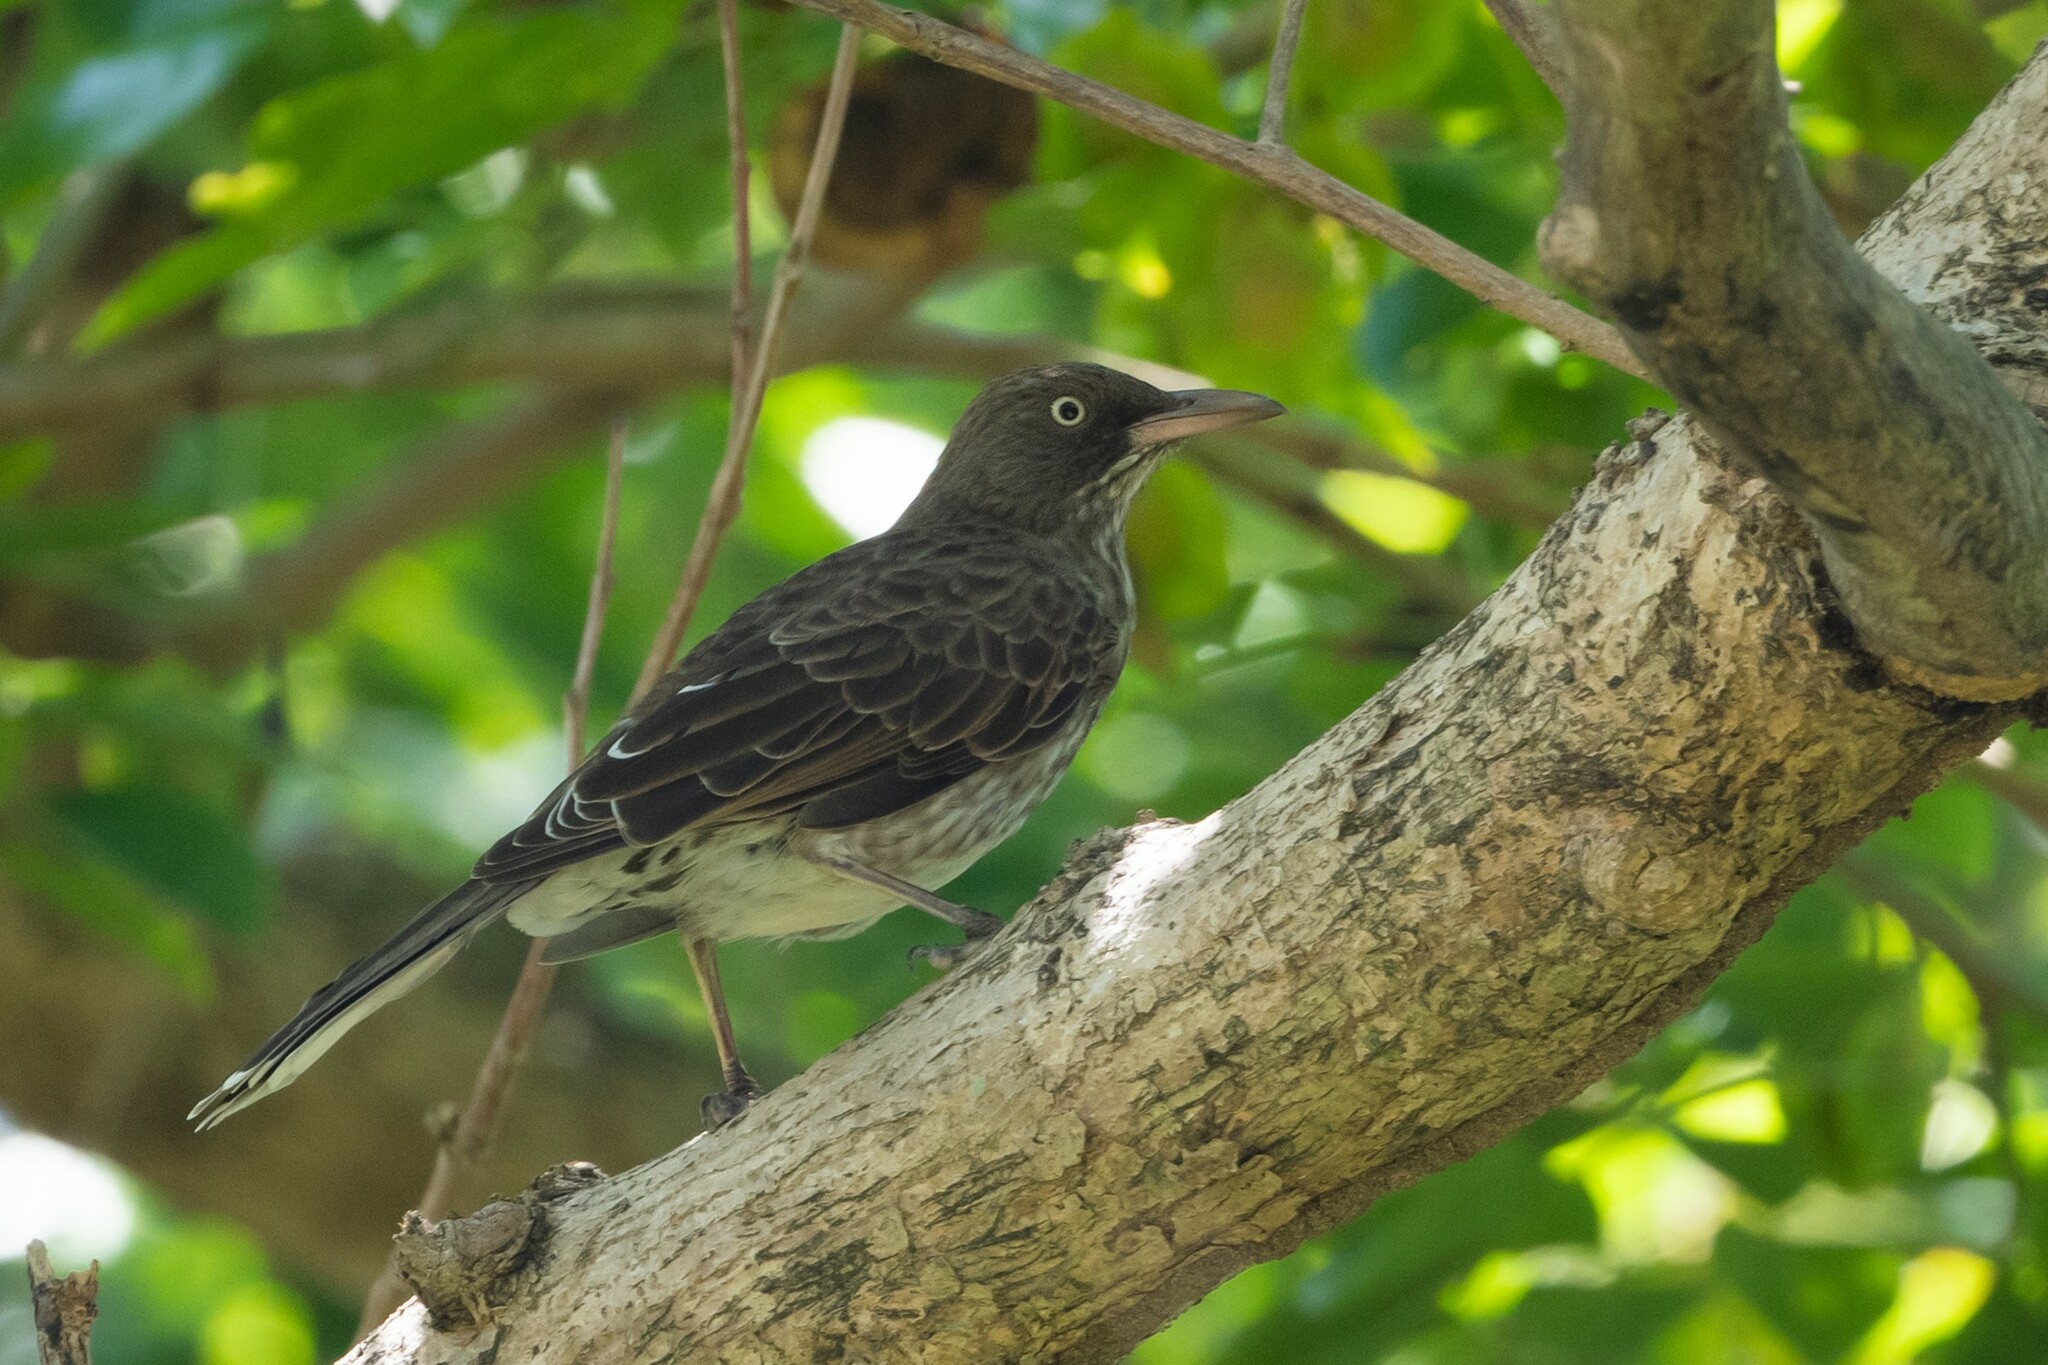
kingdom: Animalia
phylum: Chordata
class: Aves
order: Passeriformes
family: Mimidae
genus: Margarops
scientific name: Margarops fuscatus
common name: Pearly-eyed thrasher
